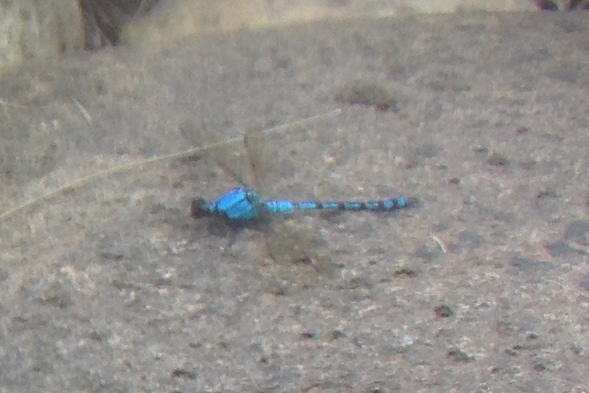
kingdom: Animalia
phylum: Arthropoda
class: Insecta
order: Odonata
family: Lestoideidae
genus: Diphlebia
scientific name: Diphlebia nymphoides
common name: Arrowhead rockmaster
